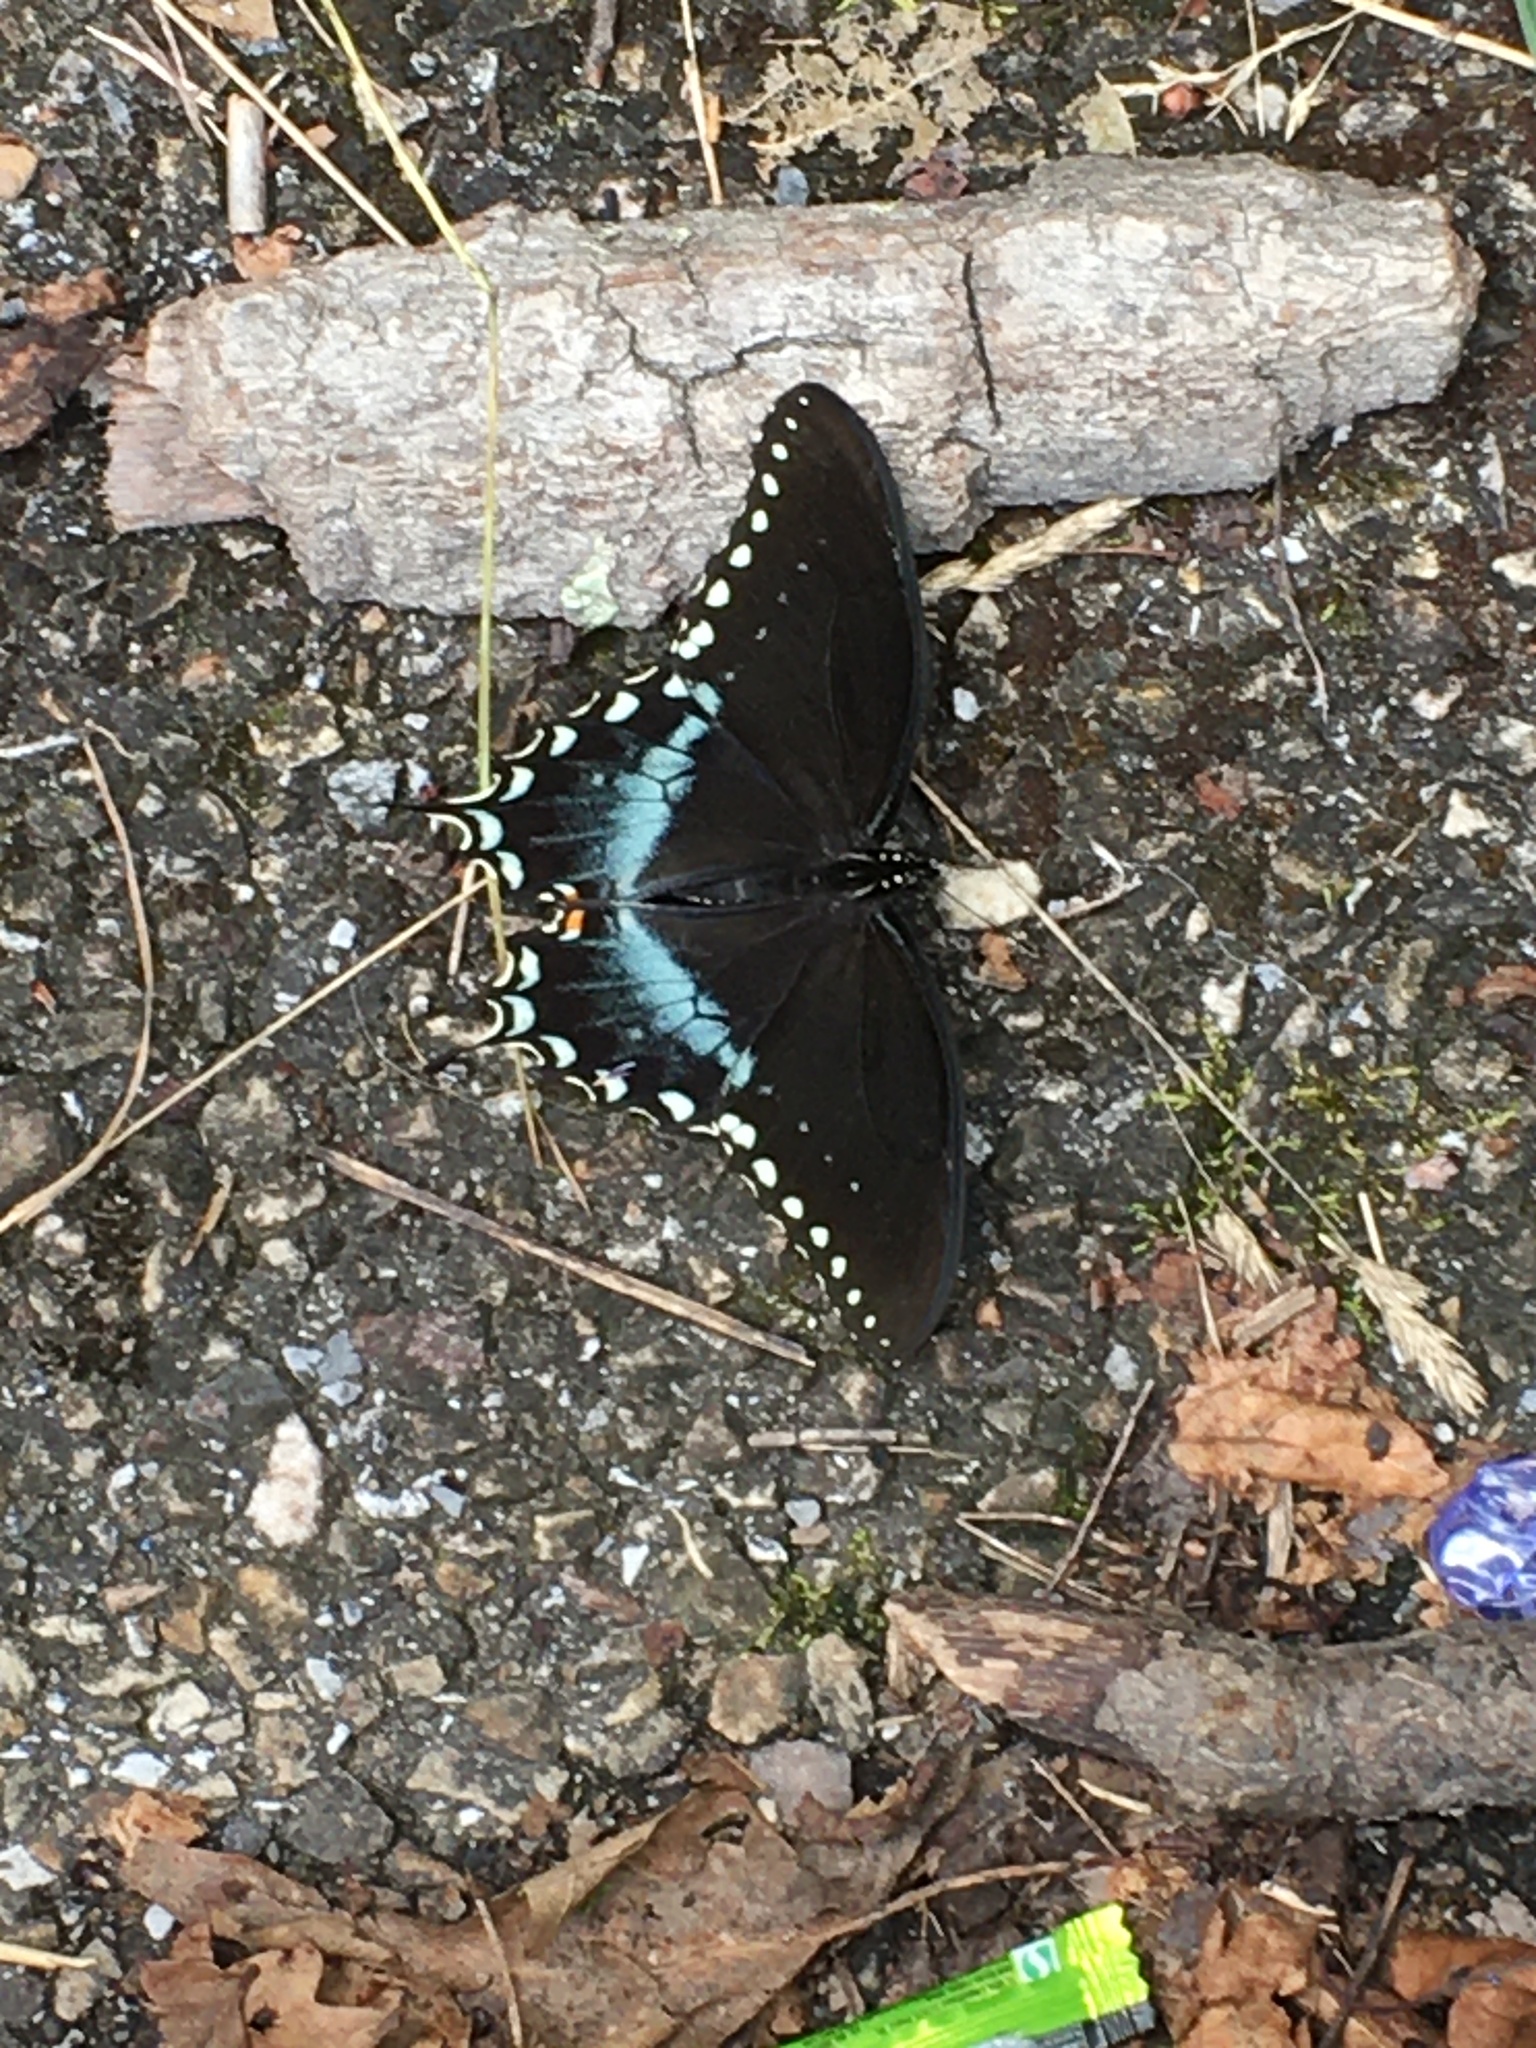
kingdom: Animalia
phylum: Arthropoda
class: Insecta
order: Lepidoptera
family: Papilionidae
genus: Papilio
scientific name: Papilio troilus
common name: Spicebush swallowtail
